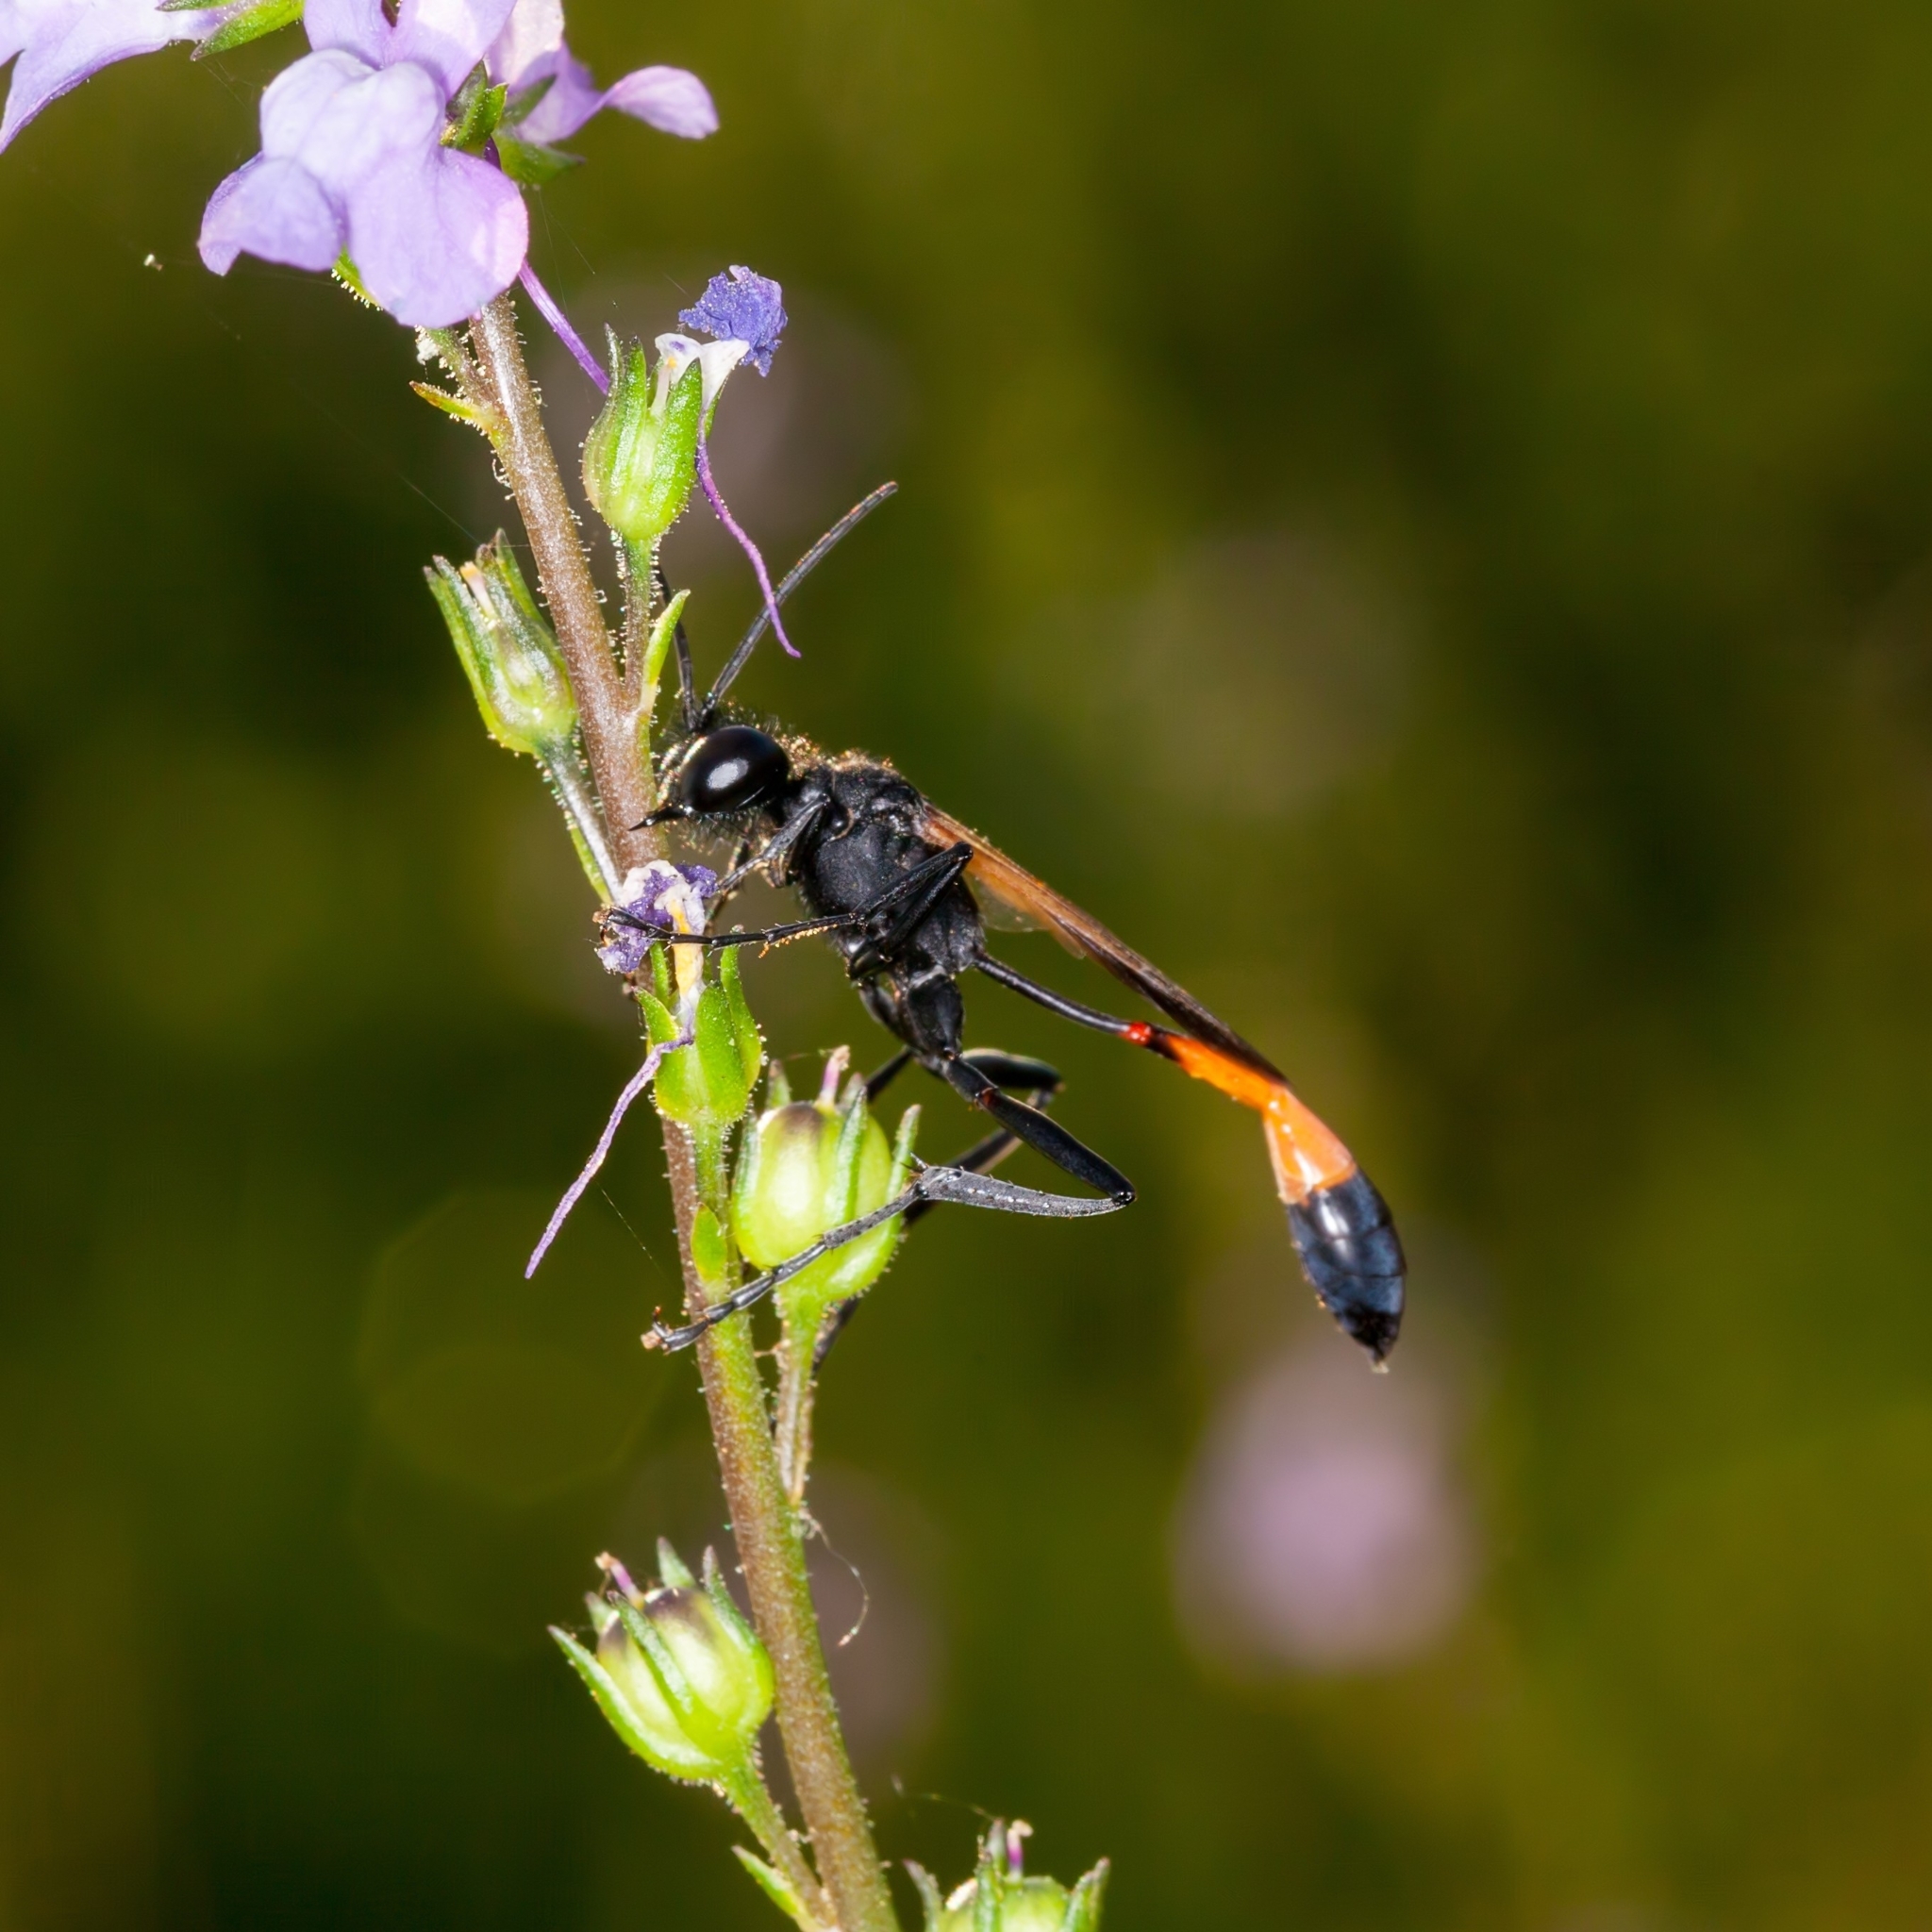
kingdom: Animalia
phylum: Arthropoda
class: Insecta
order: Hymenoptera
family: Sphecidae
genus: Ammophila
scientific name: Ammophila pictipennis
